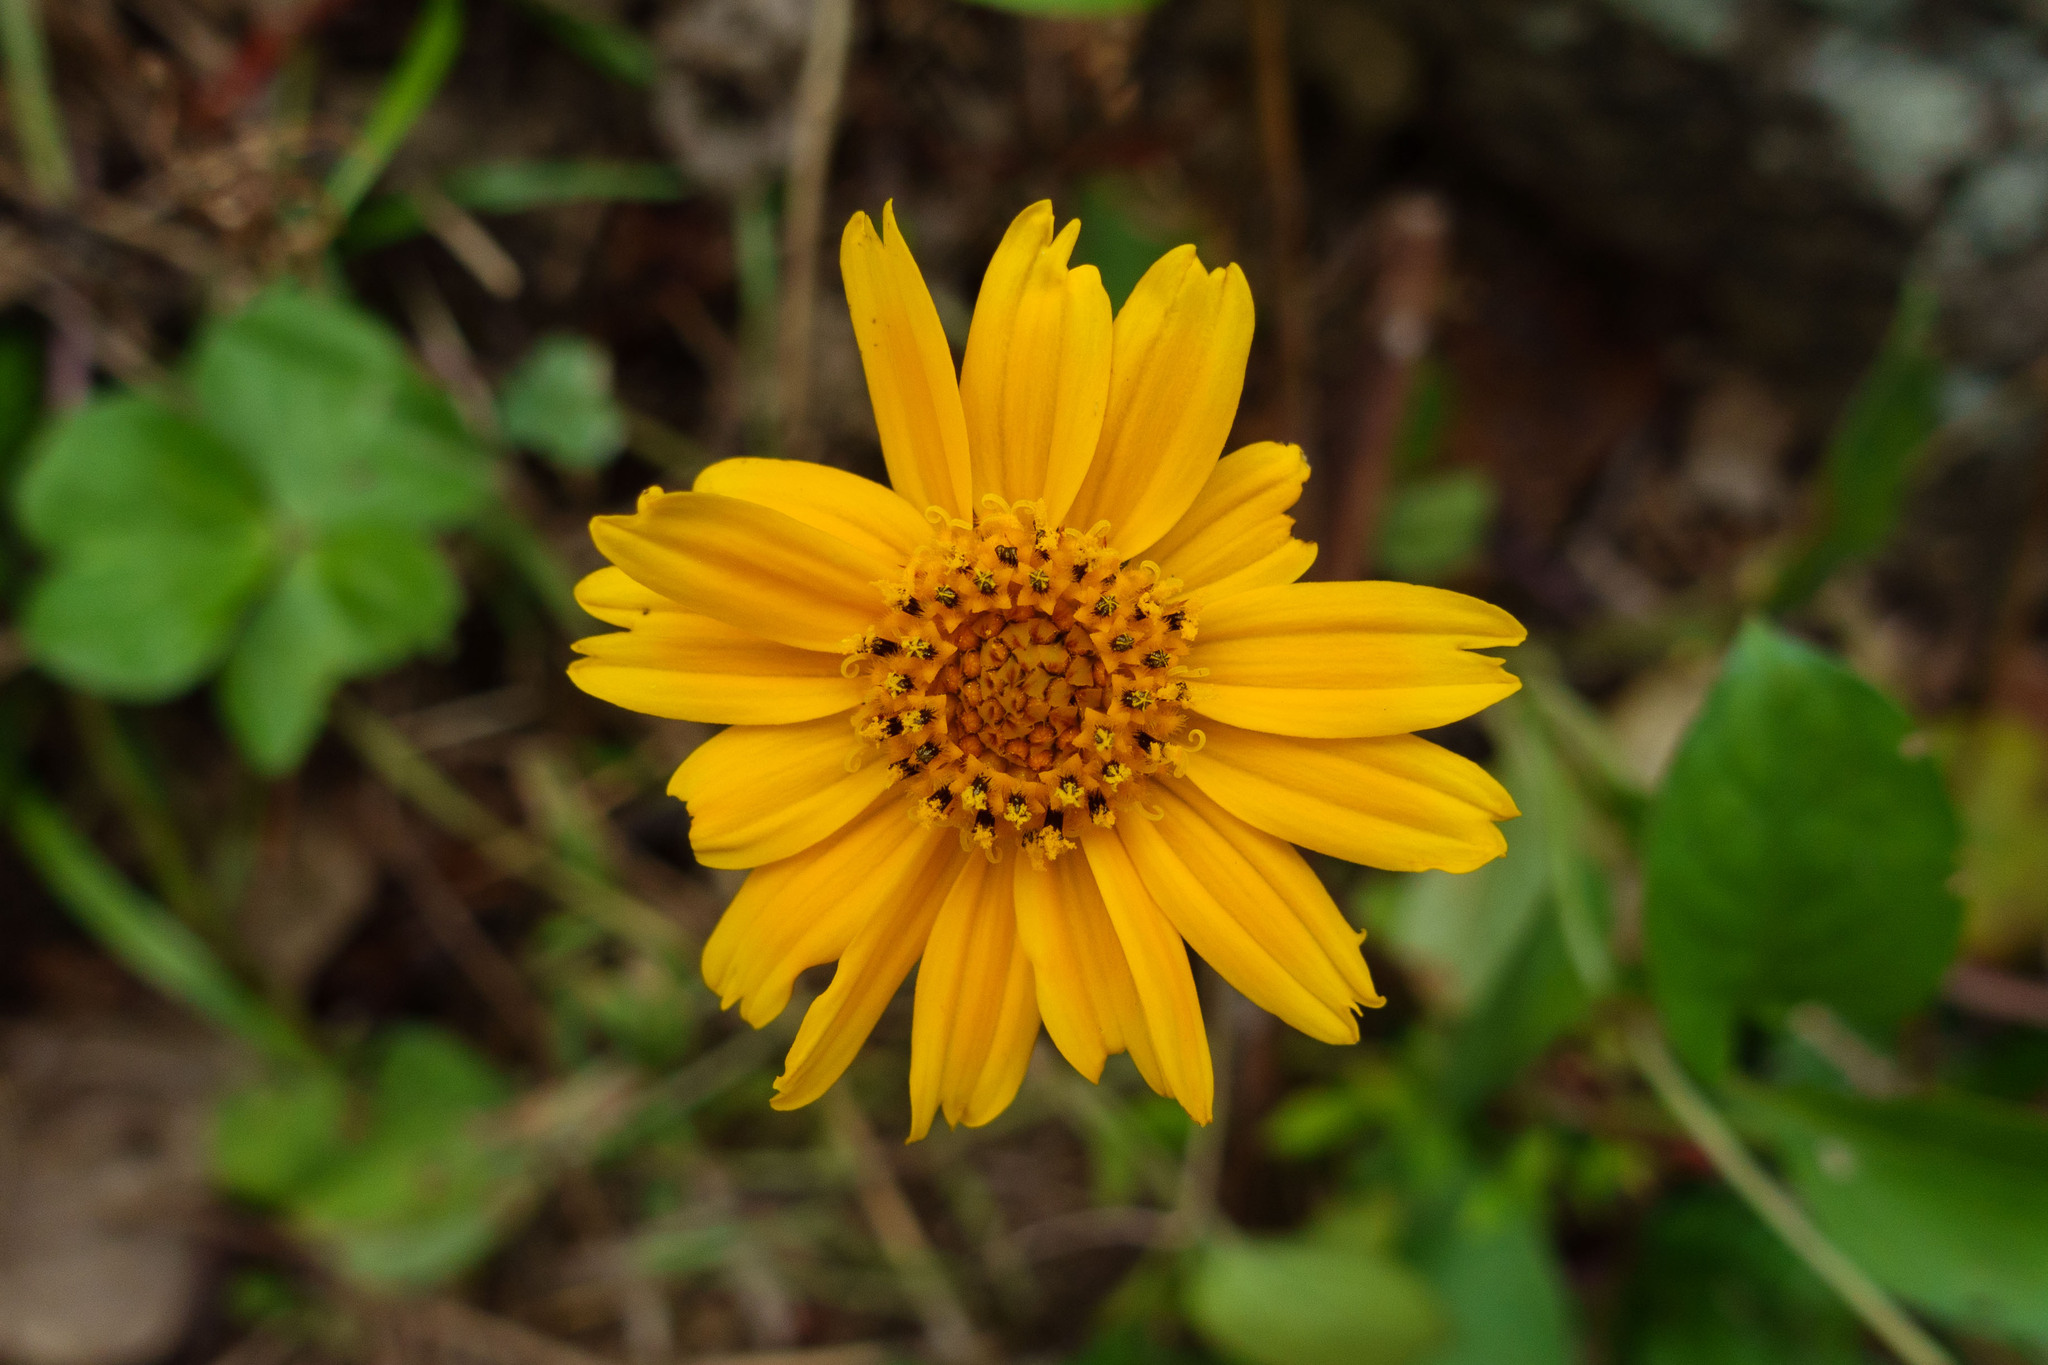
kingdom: Plantae
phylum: Tracheophyta
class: Magnoliopsida
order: Asterales
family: Asteraceae
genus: Sphagneticola
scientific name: Sphagneticola trilobata
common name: Bay biscayne creeping-oxeye
